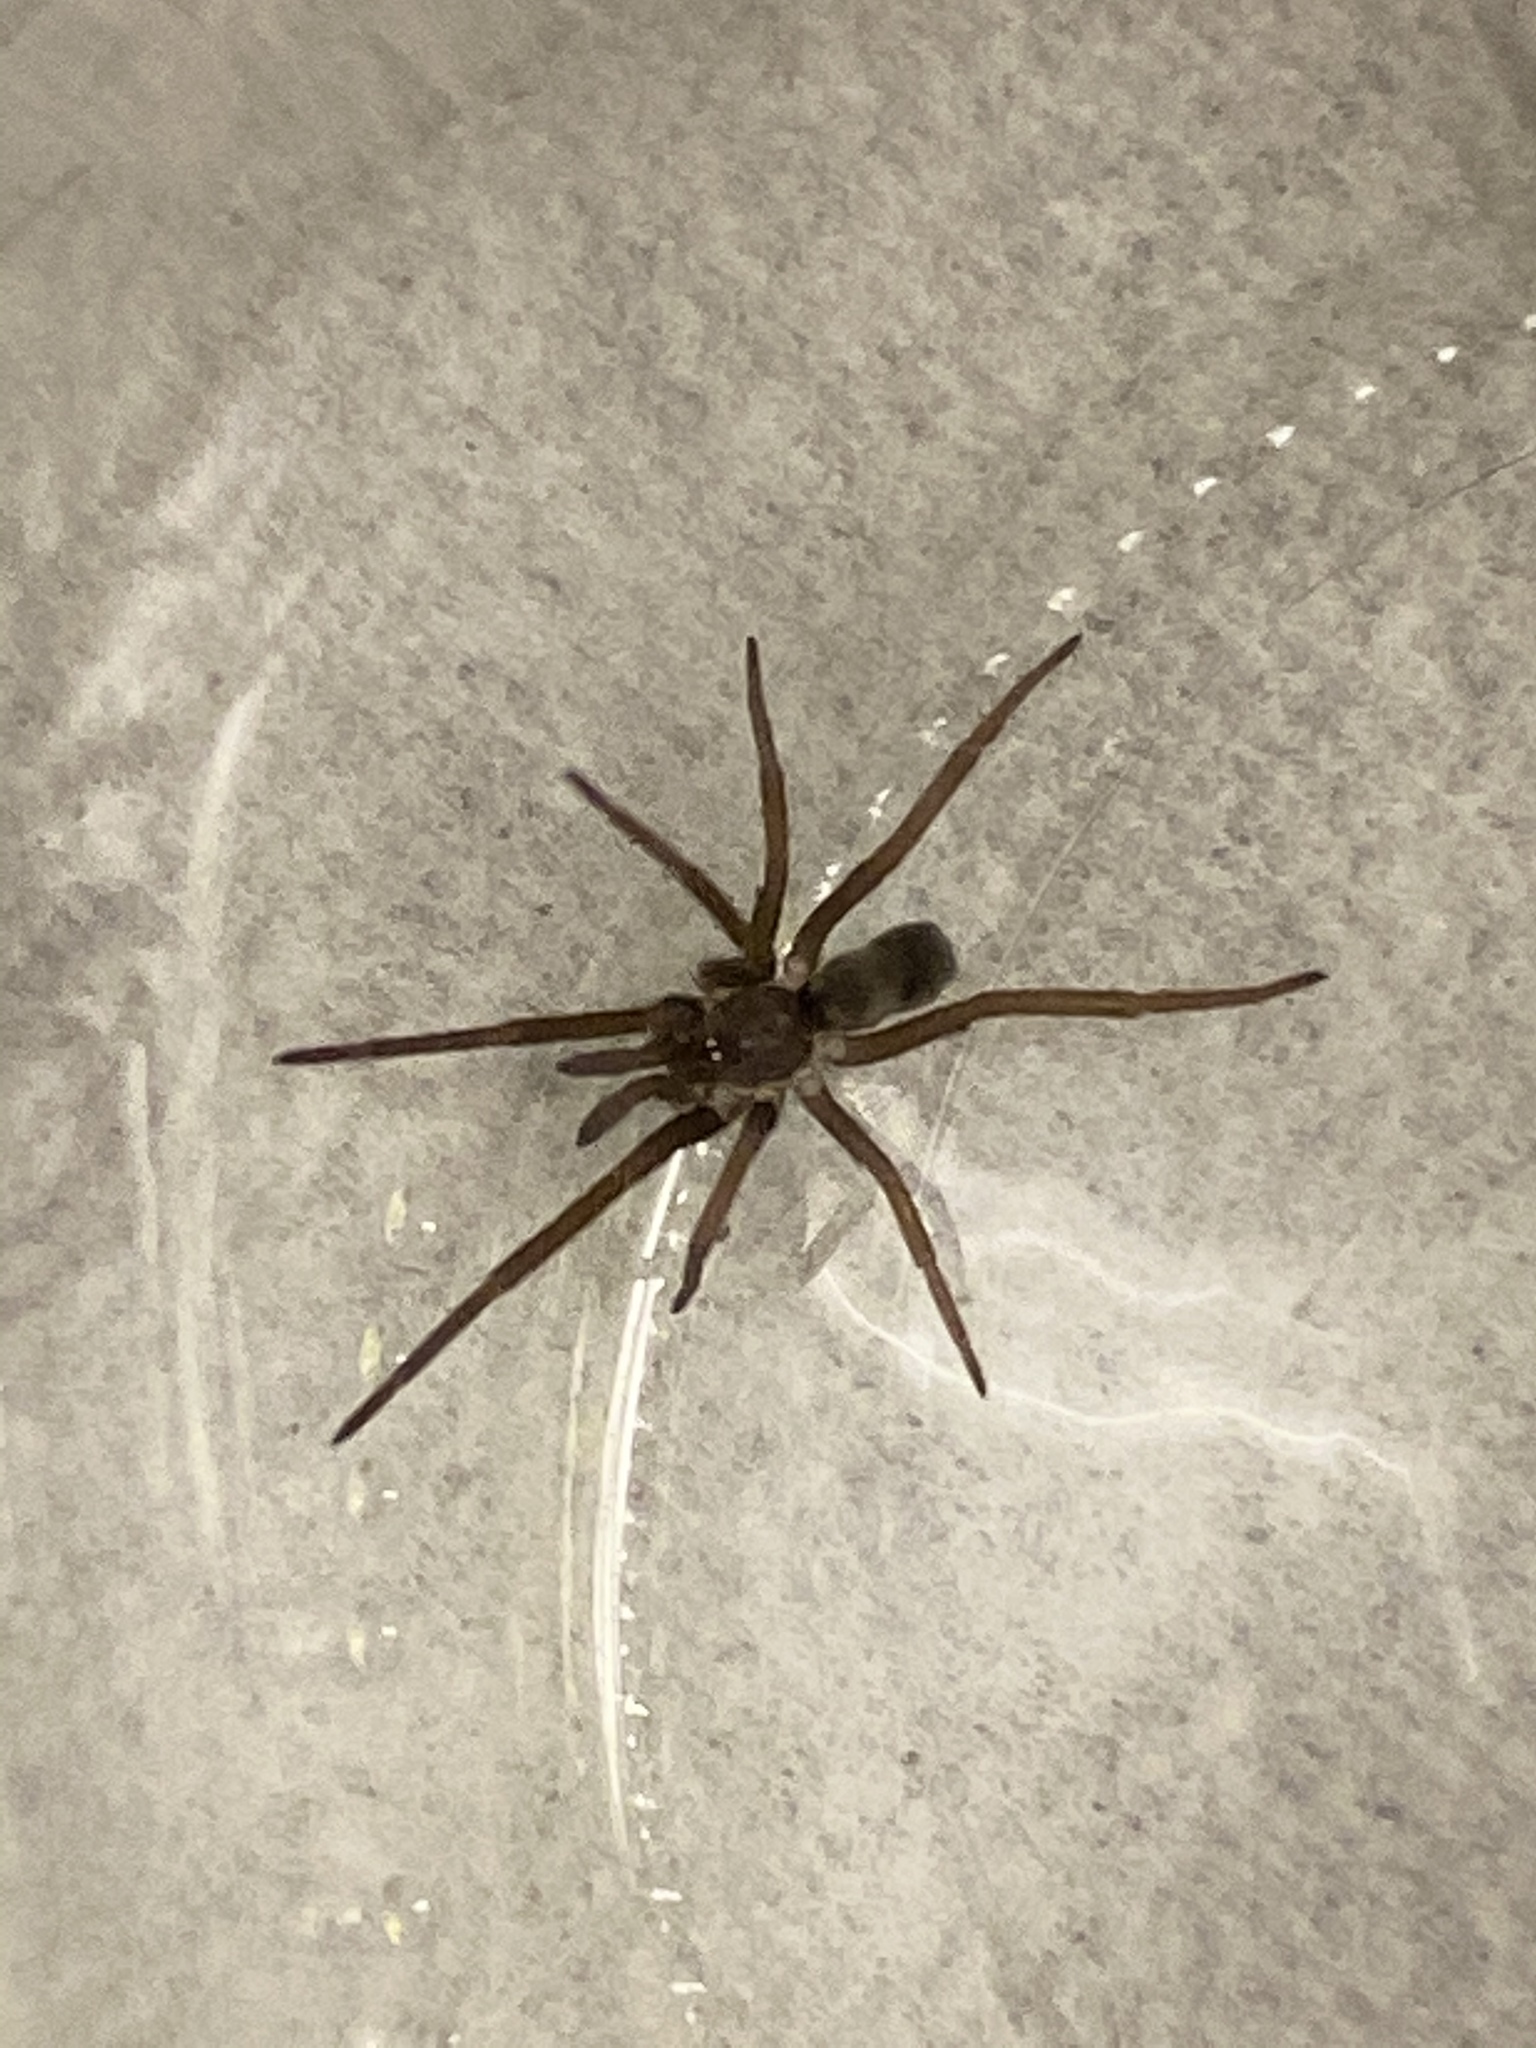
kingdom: Animalia
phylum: Arthropoda
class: Arachnida
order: Araneae
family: Filistatidae
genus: Kukulcania
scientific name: Kukulcania hibernalis
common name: Crevice weaver
